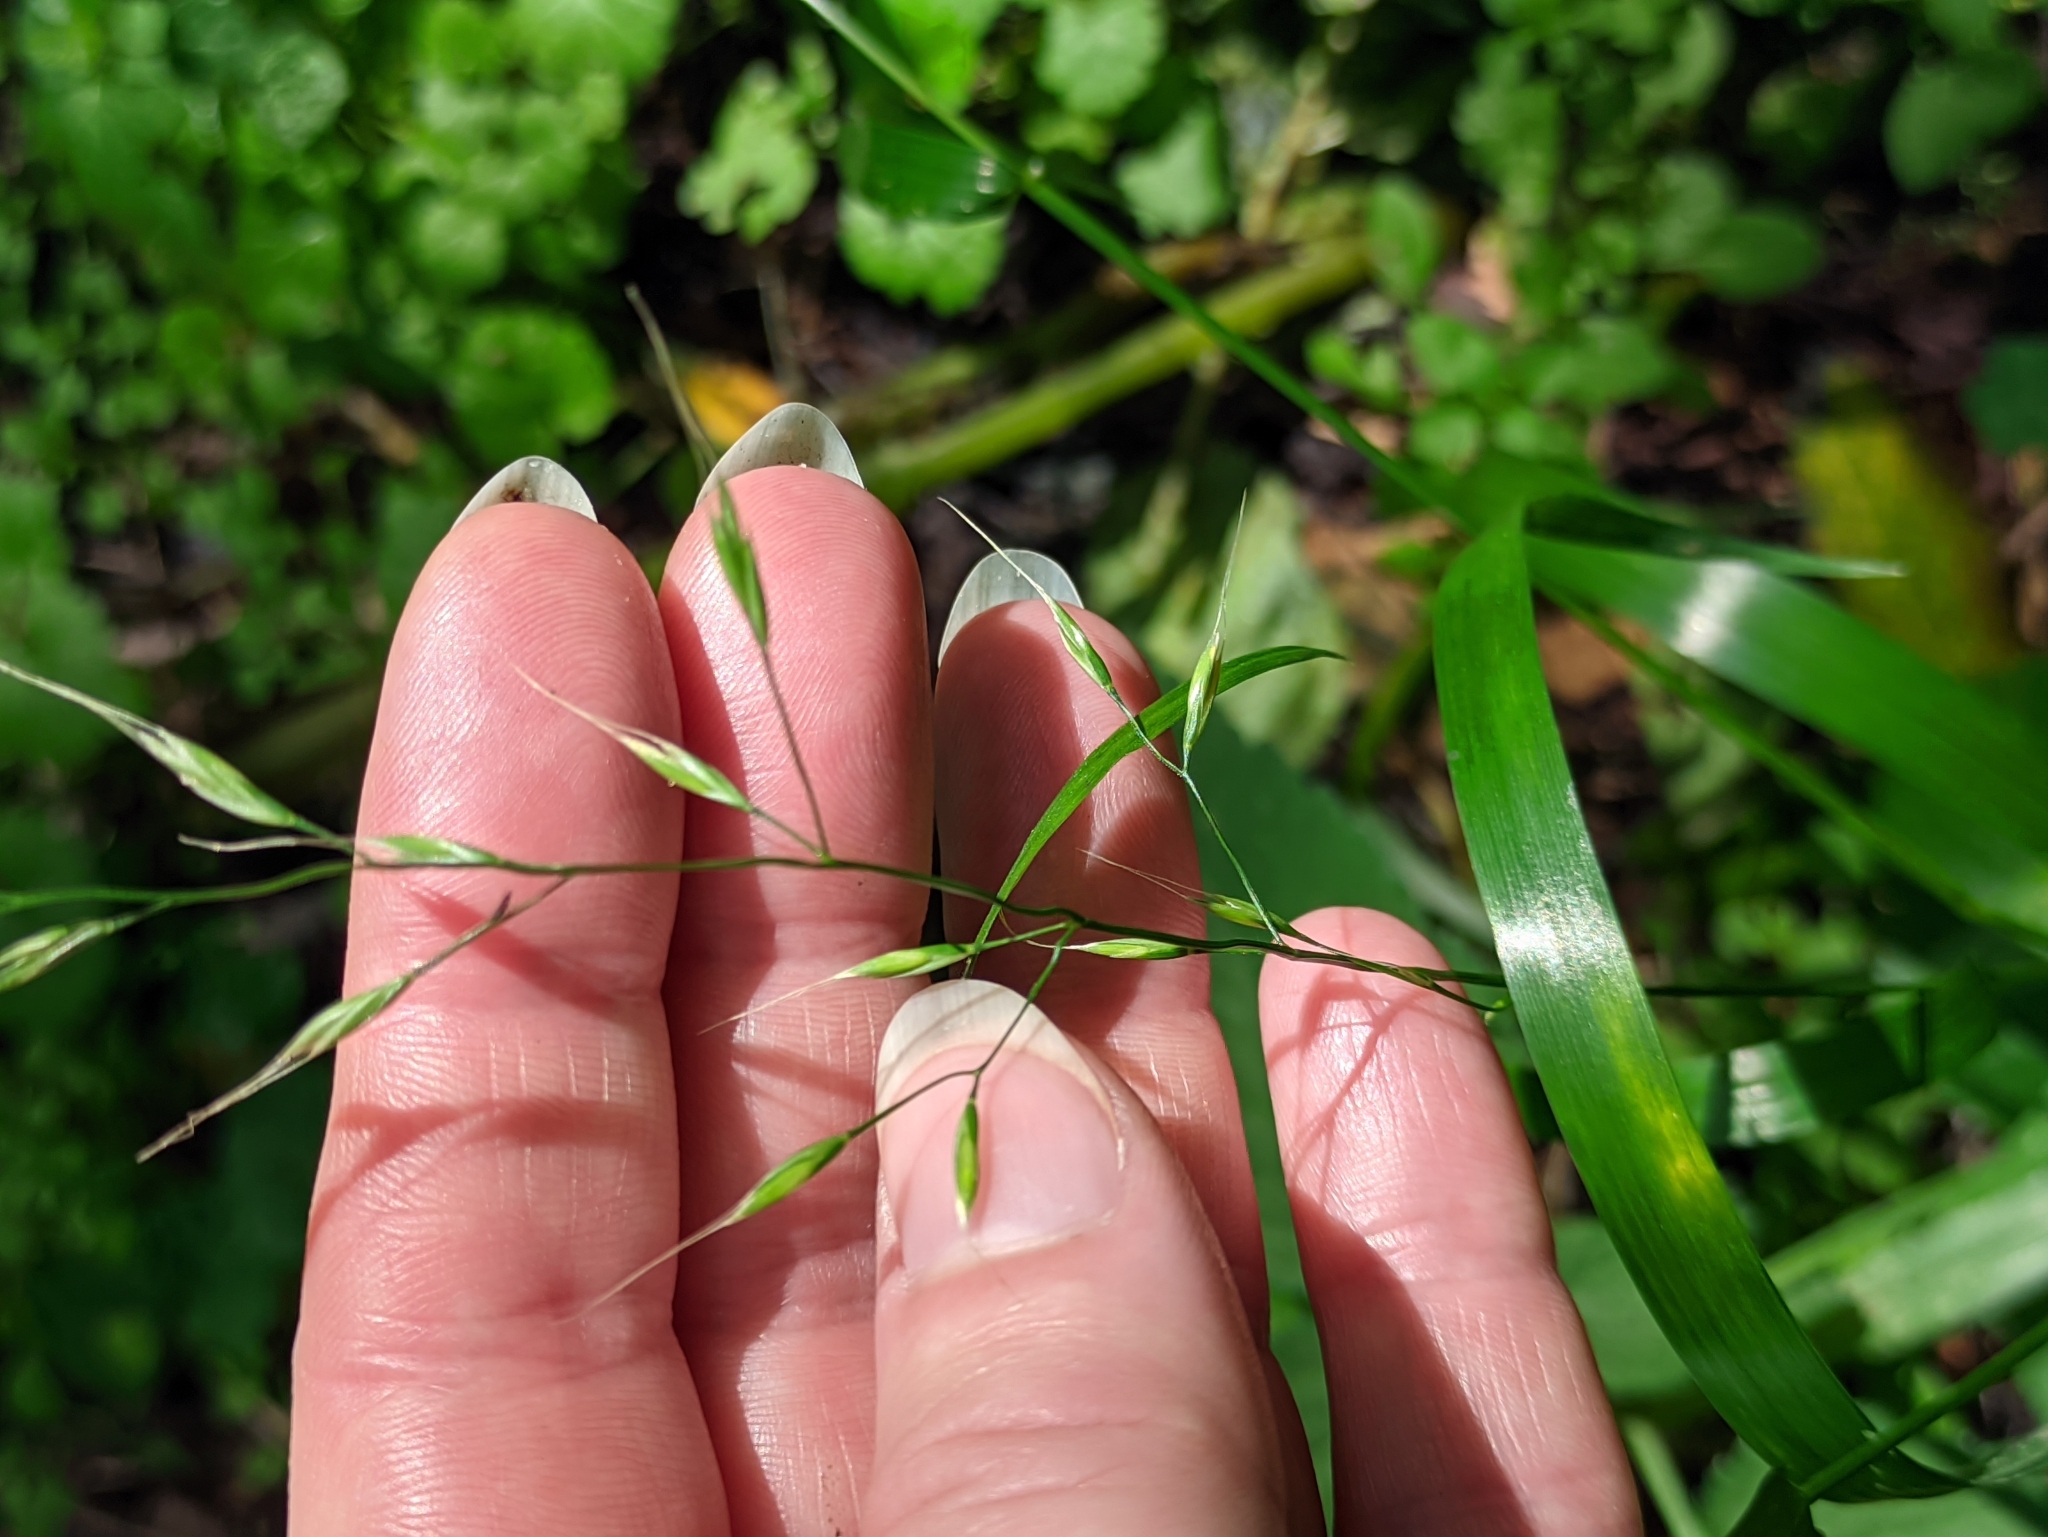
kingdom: Plantae
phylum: Tracheophyta
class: Liliopsida
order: Poales
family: Poaceae
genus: Lolium
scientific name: Lolium giganteum
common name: Giant fescue
